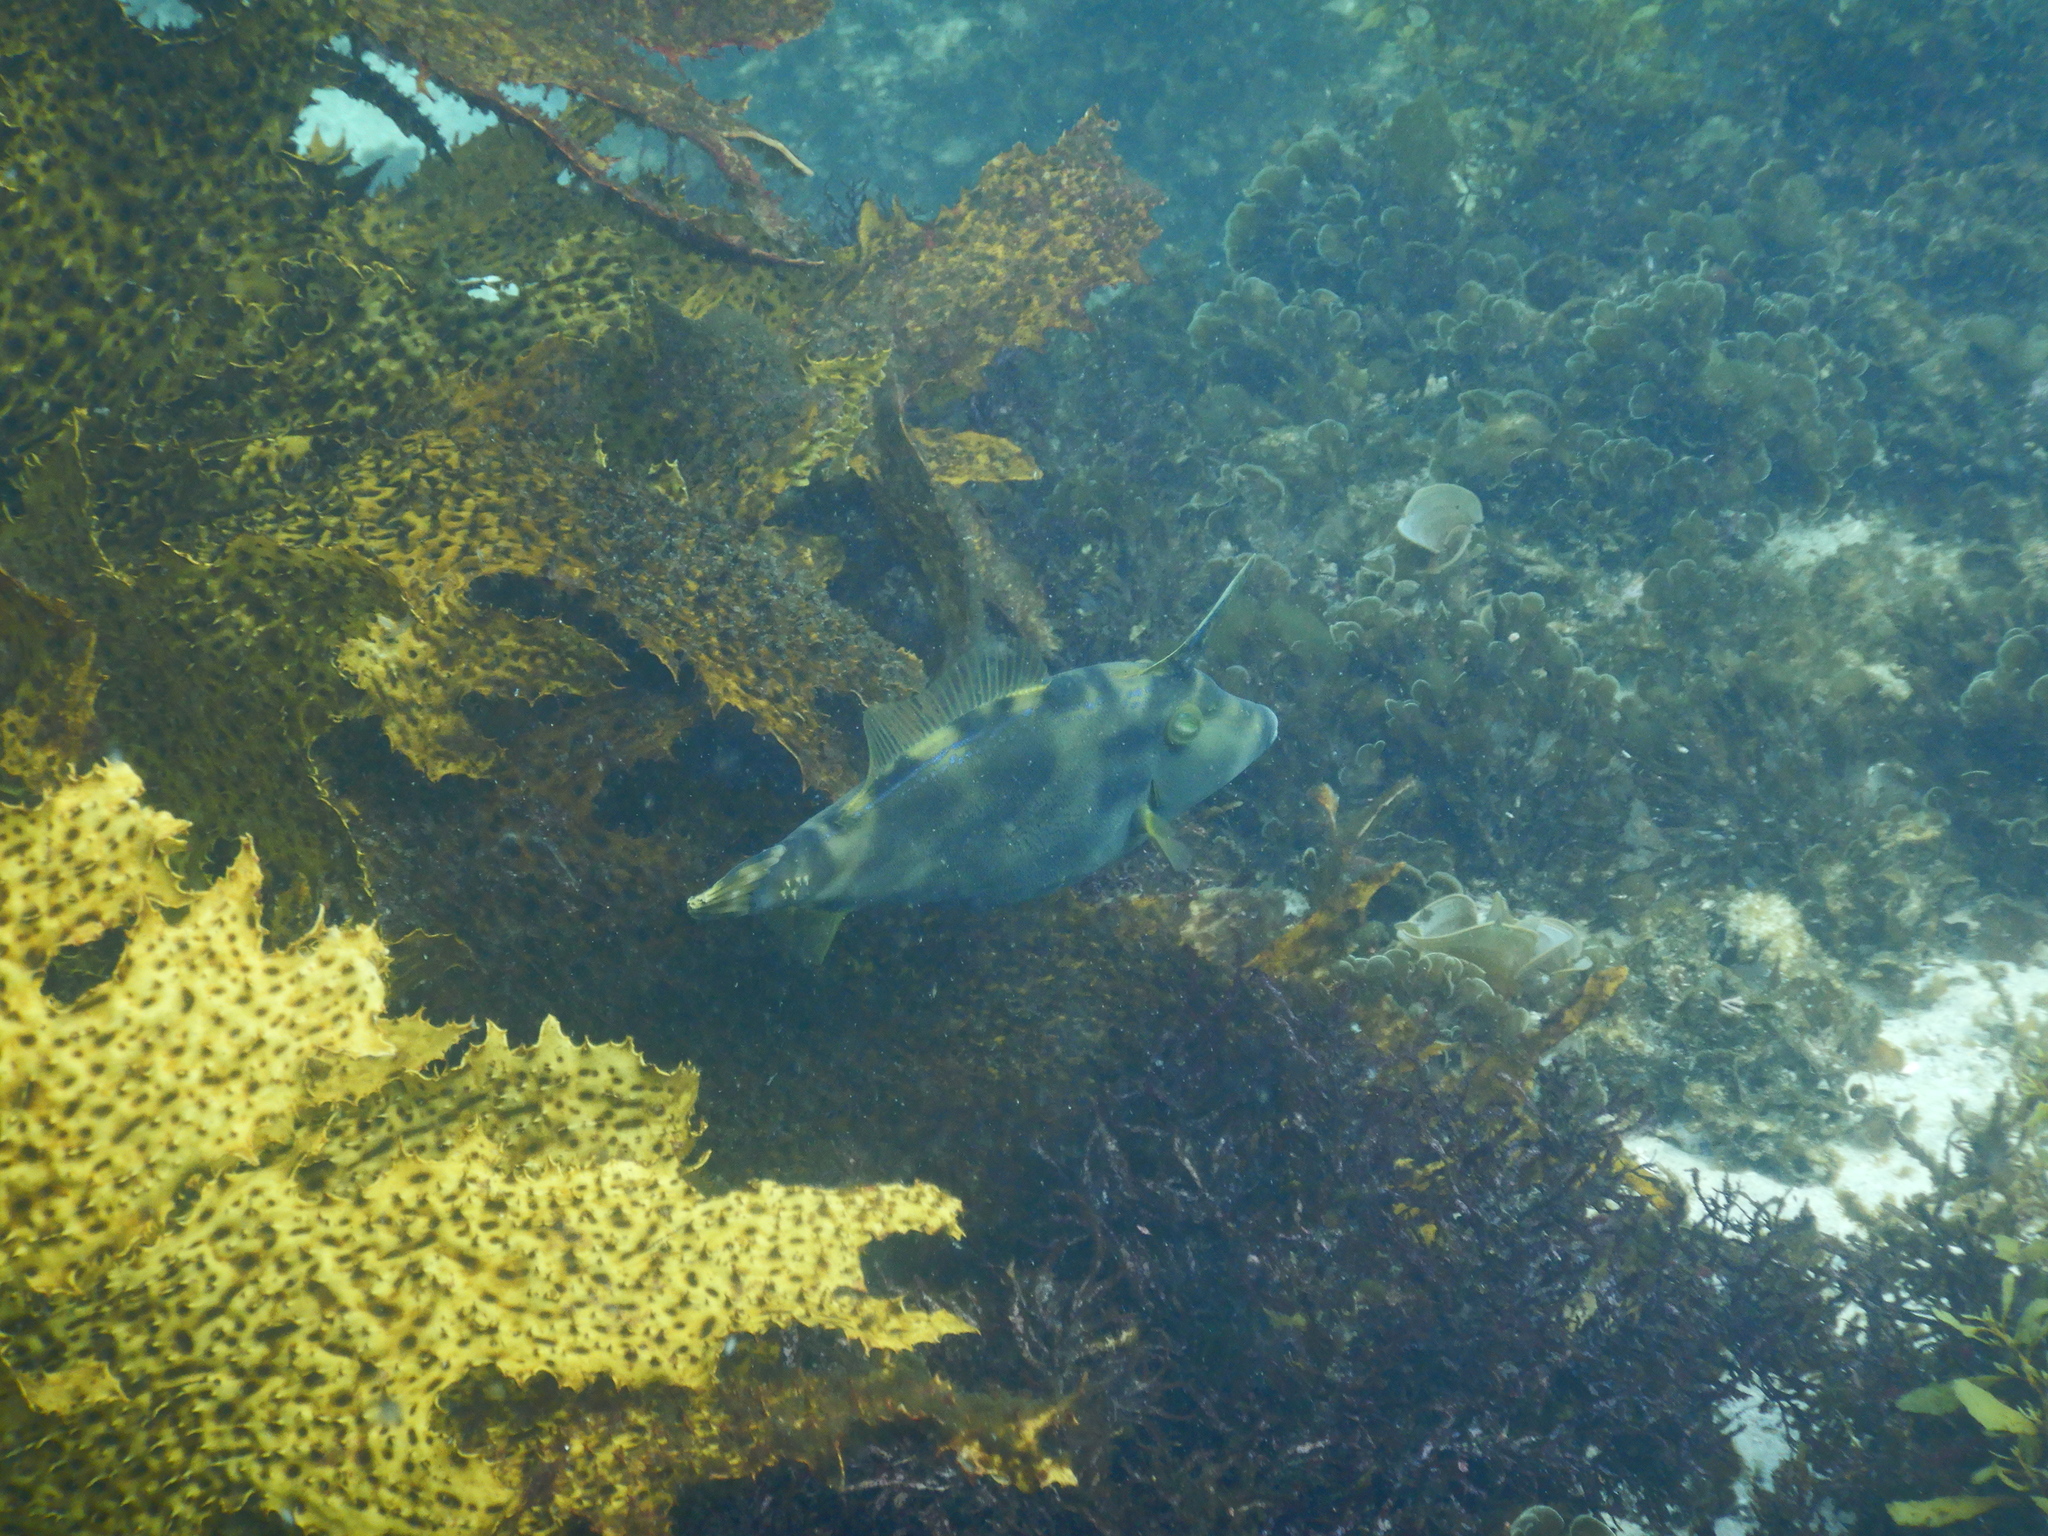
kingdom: Animalia
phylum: Chordata
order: Tetraodontiformes
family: Monacanthidae
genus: Meuschenia
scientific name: Meuschenia trachylepis
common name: Yellowfin leatherjacket
